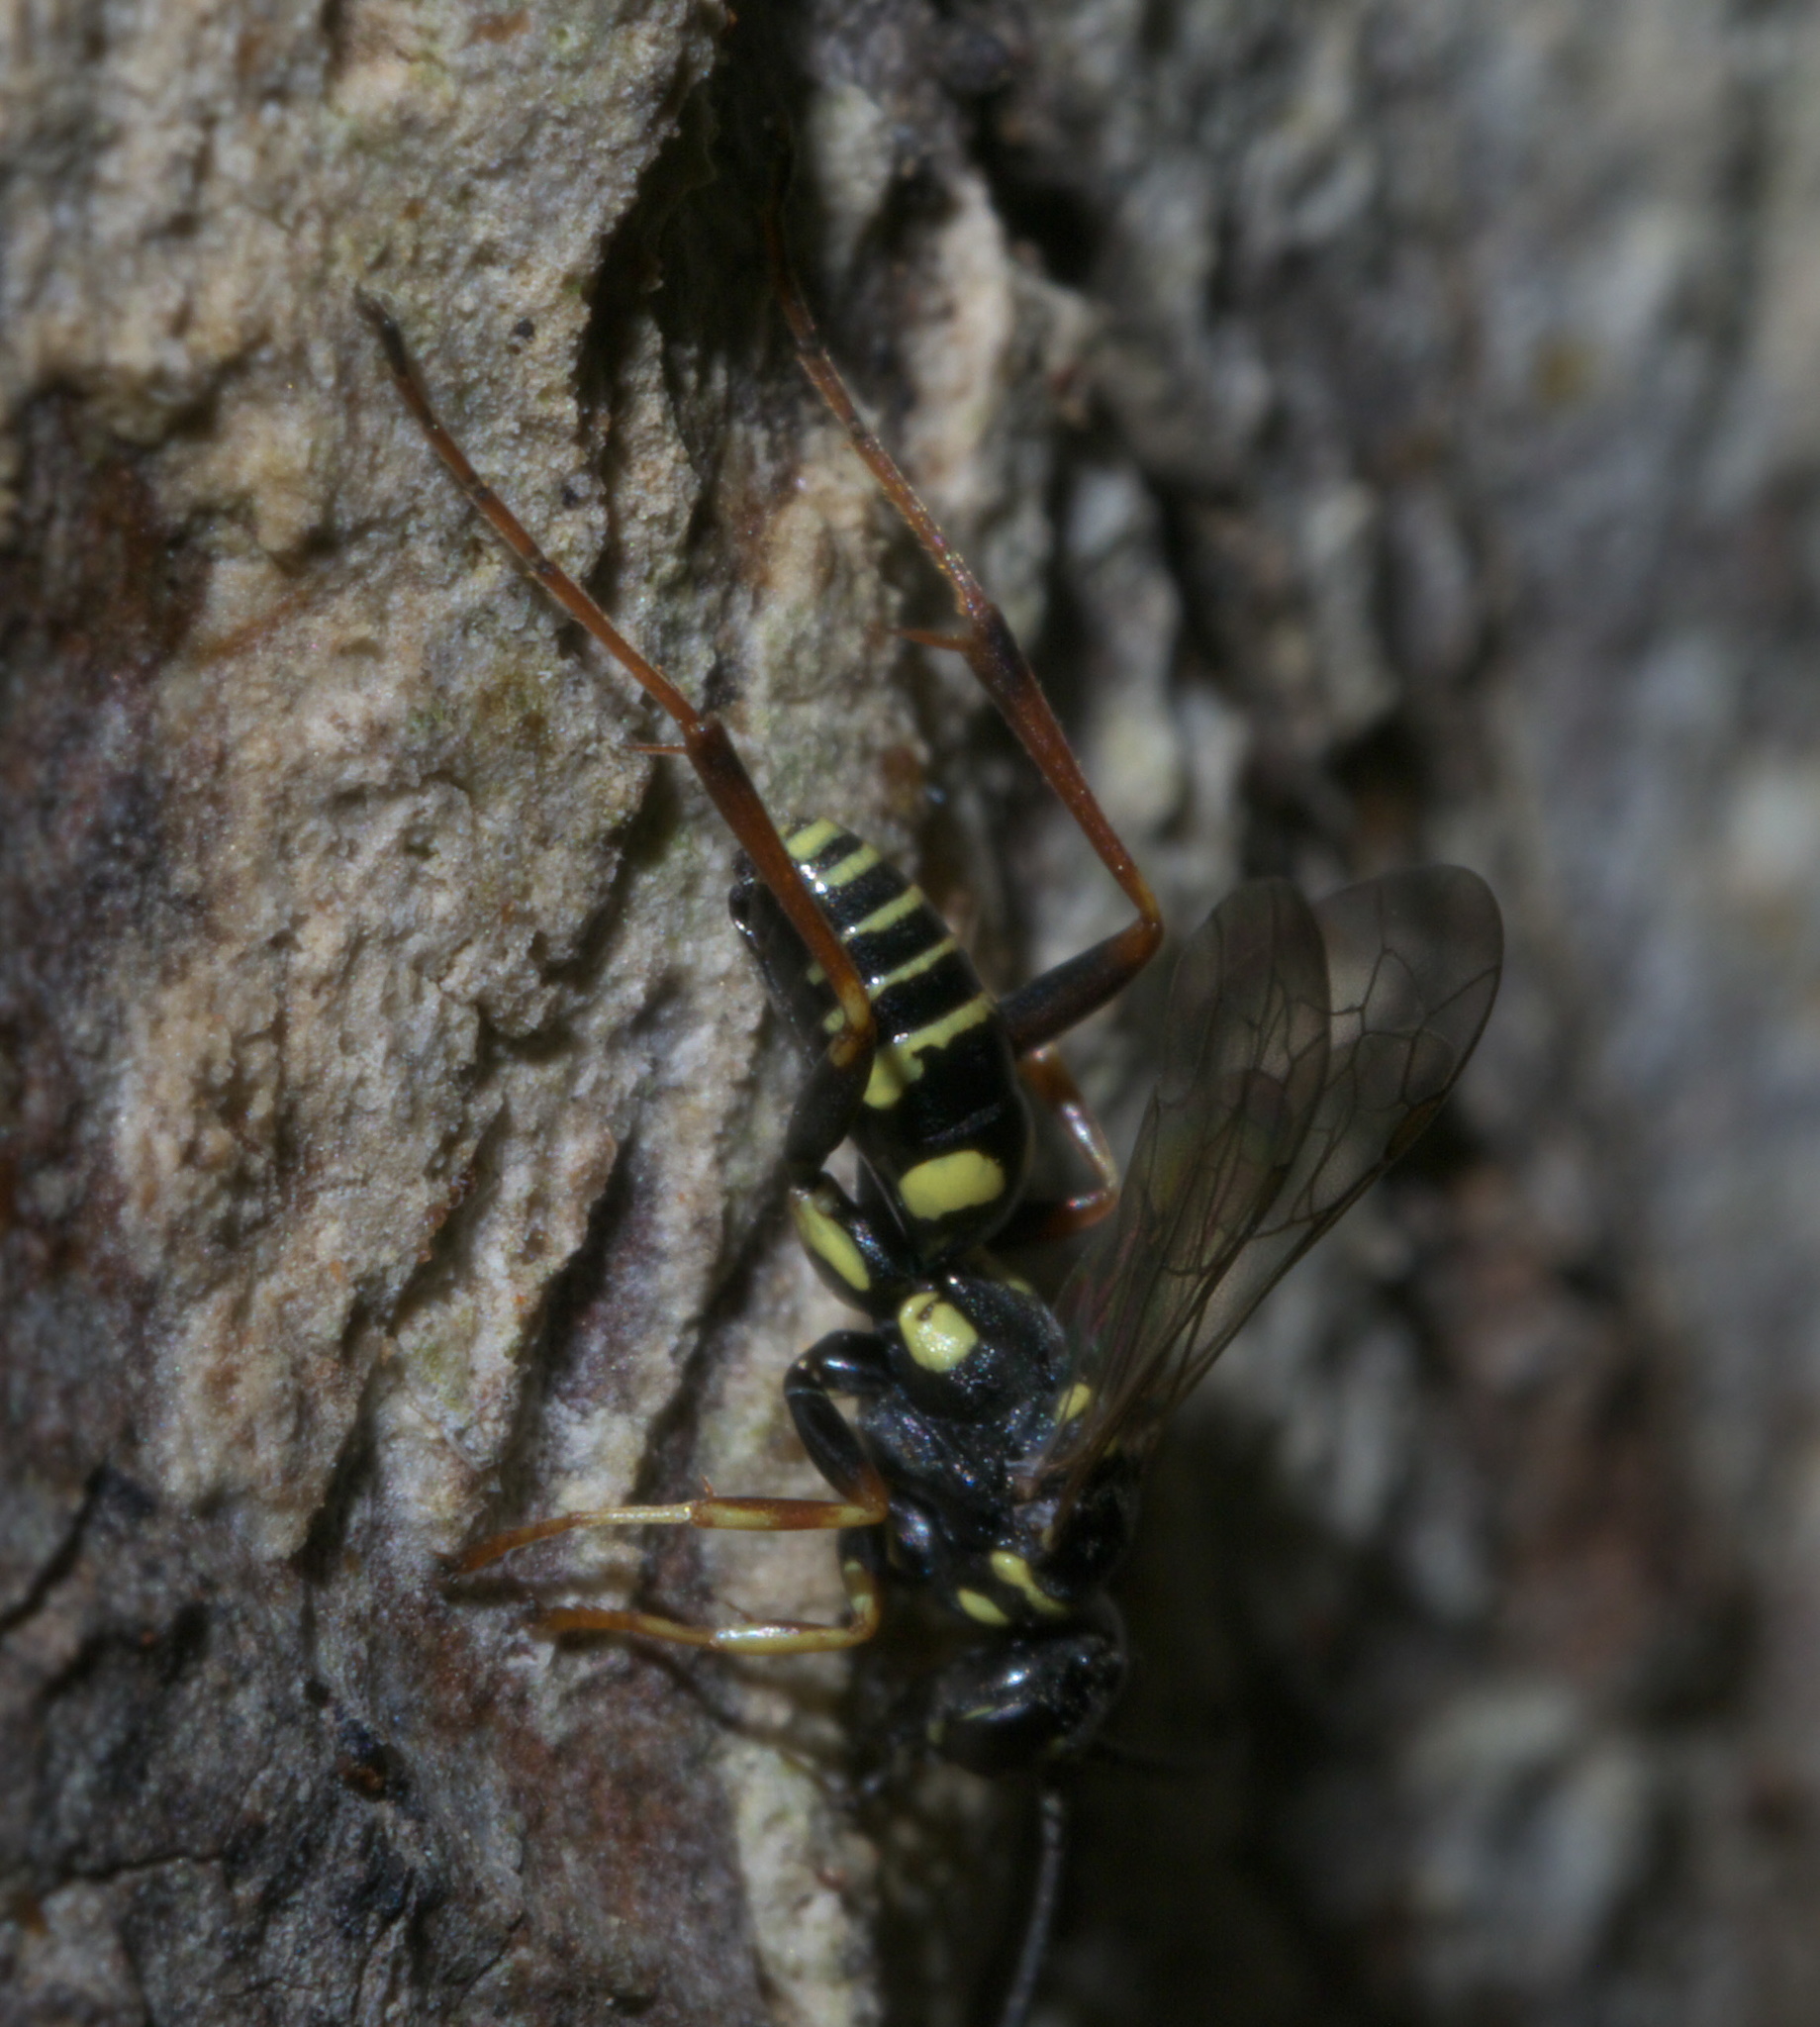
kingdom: Animalia
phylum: Arthropoda
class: Insecta
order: Hymenoptera
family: Pompilidae
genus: Ceropales
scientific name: Ceropales maculata
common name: Spider wasp
